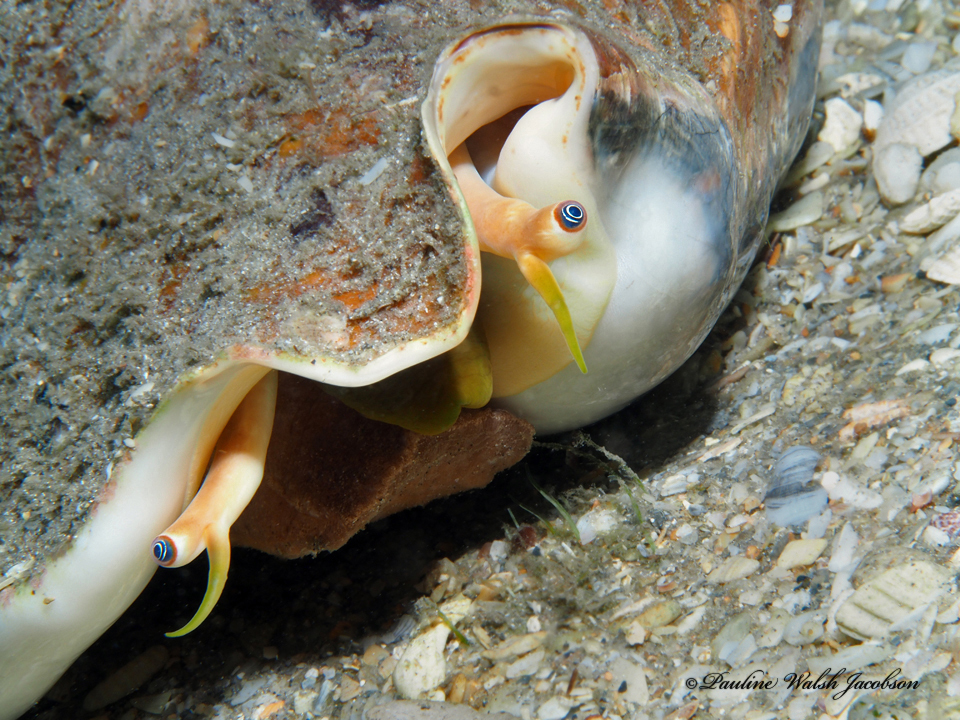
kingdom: Animalia
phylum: Mollusca
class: Gastropoda
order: Littorinimorpha
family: Strombidae
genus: Macrostrombus
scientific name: Macrostrombus costatus
